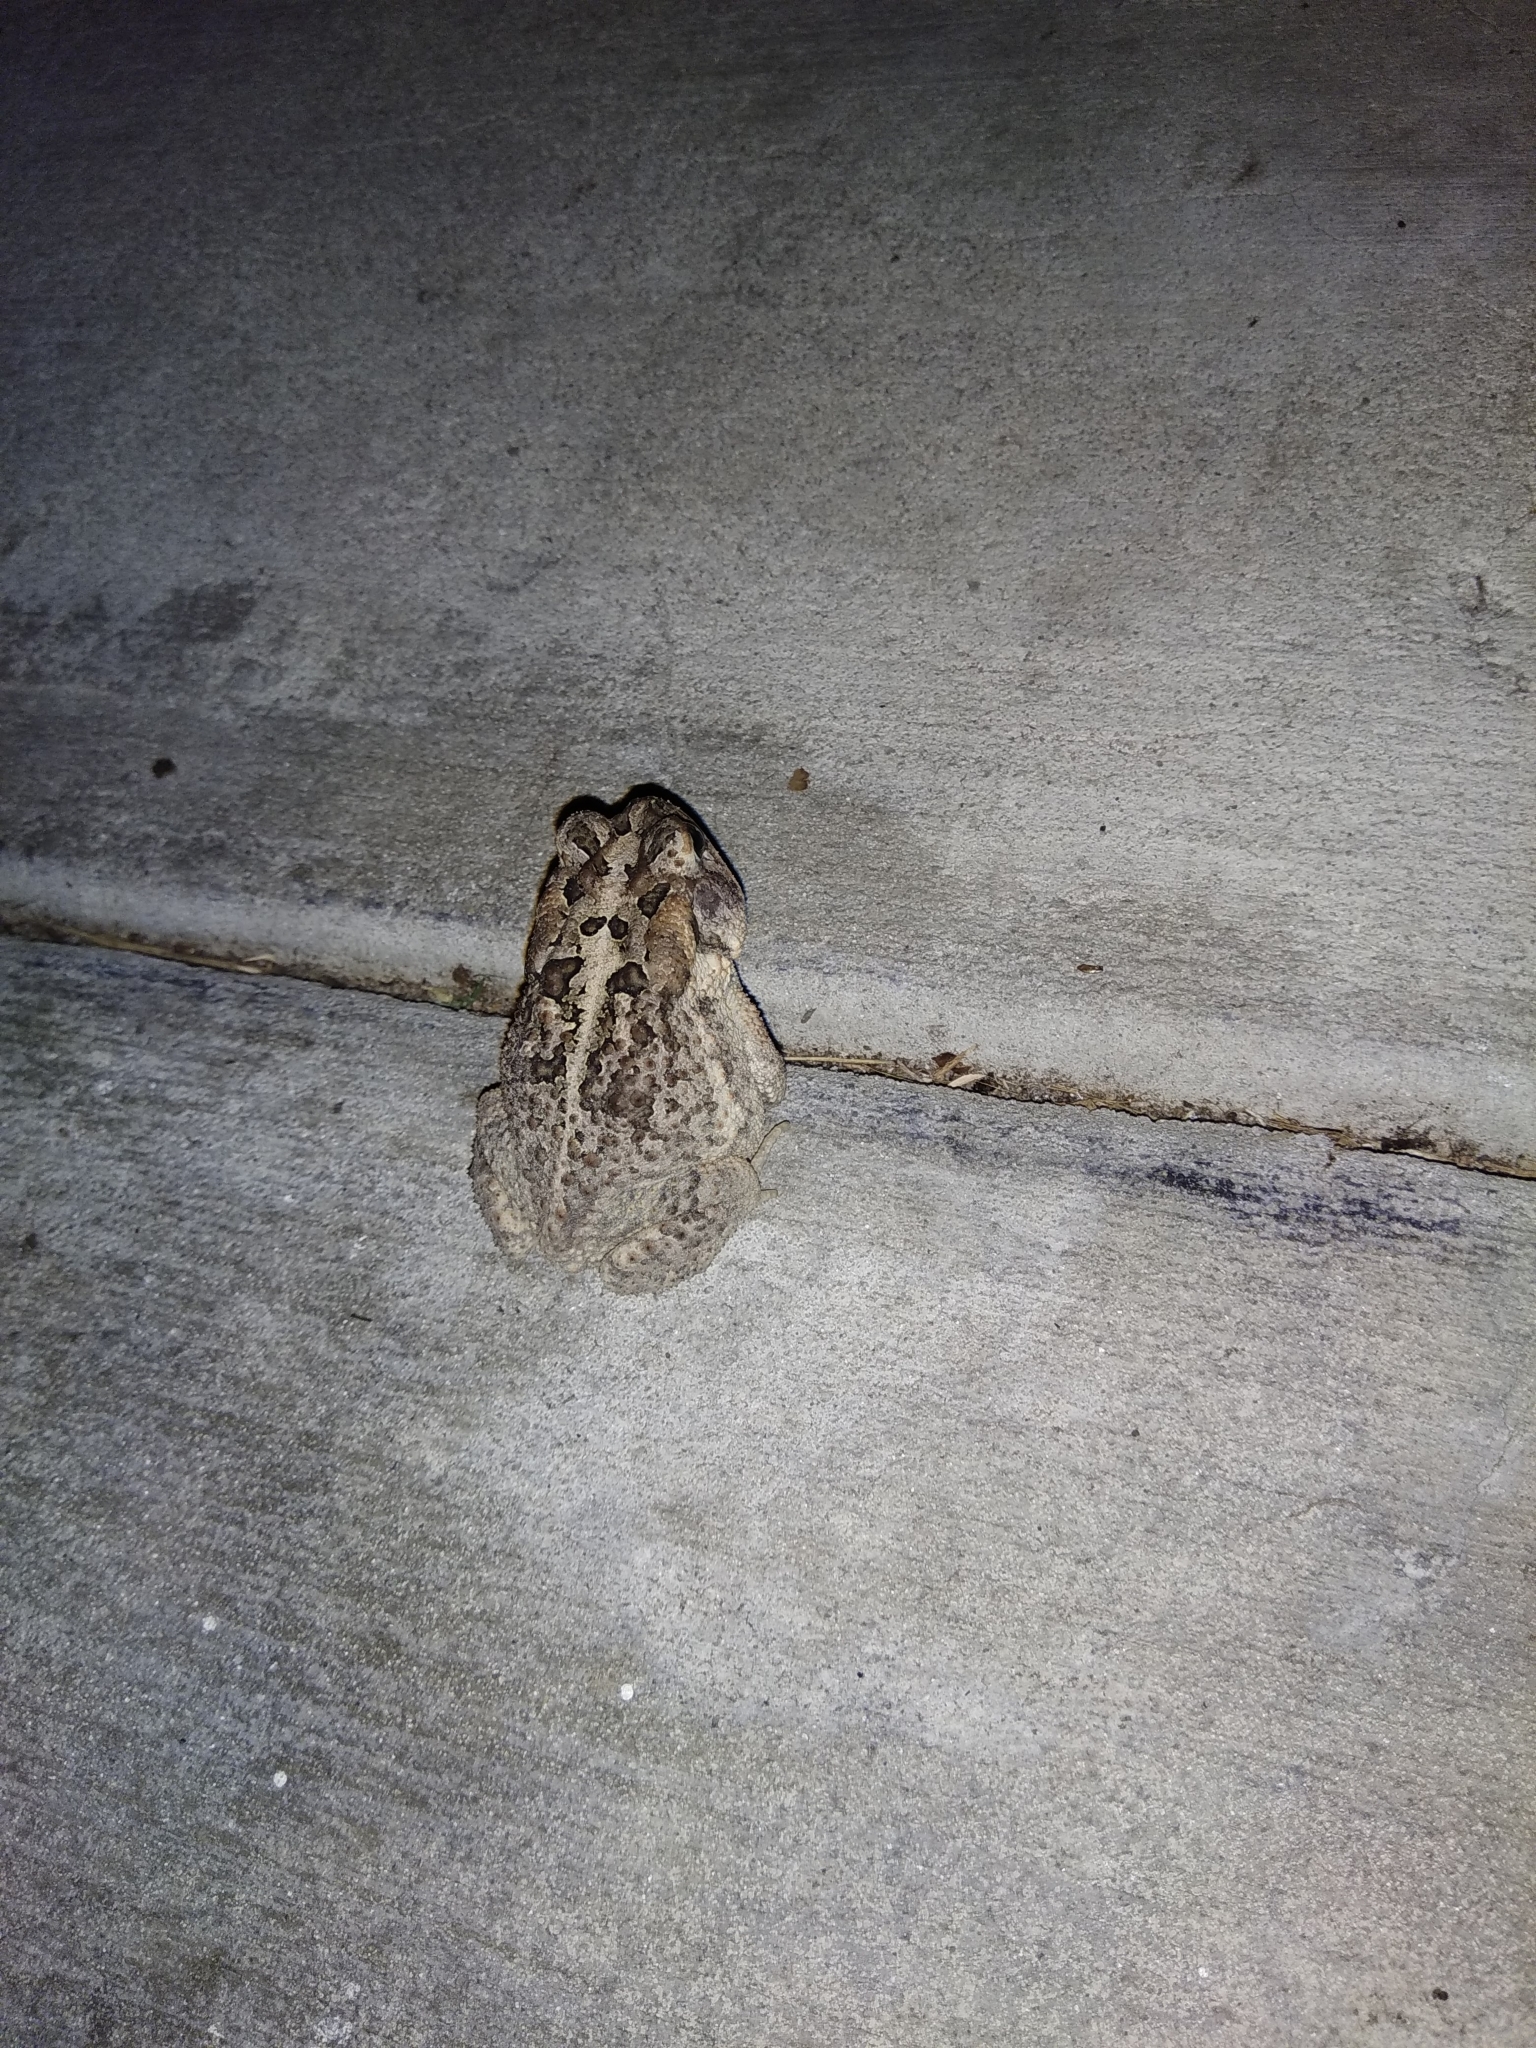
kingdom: Animalia
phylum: Chordata
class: Amphibia
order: Anura
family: Bufonidae
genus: Anaxyrus
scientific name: Anaxyrus terrestris
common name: Southern toad
